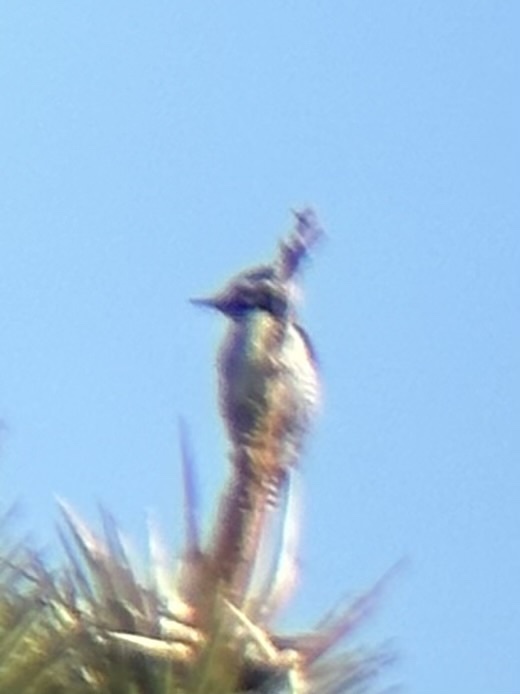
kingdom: Animalia
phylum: Chordata
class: Aves
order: Piciformes
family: Picidae
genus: Dryobates
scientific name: Dryobates scalaris
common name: Ladder-backed woodpecker
